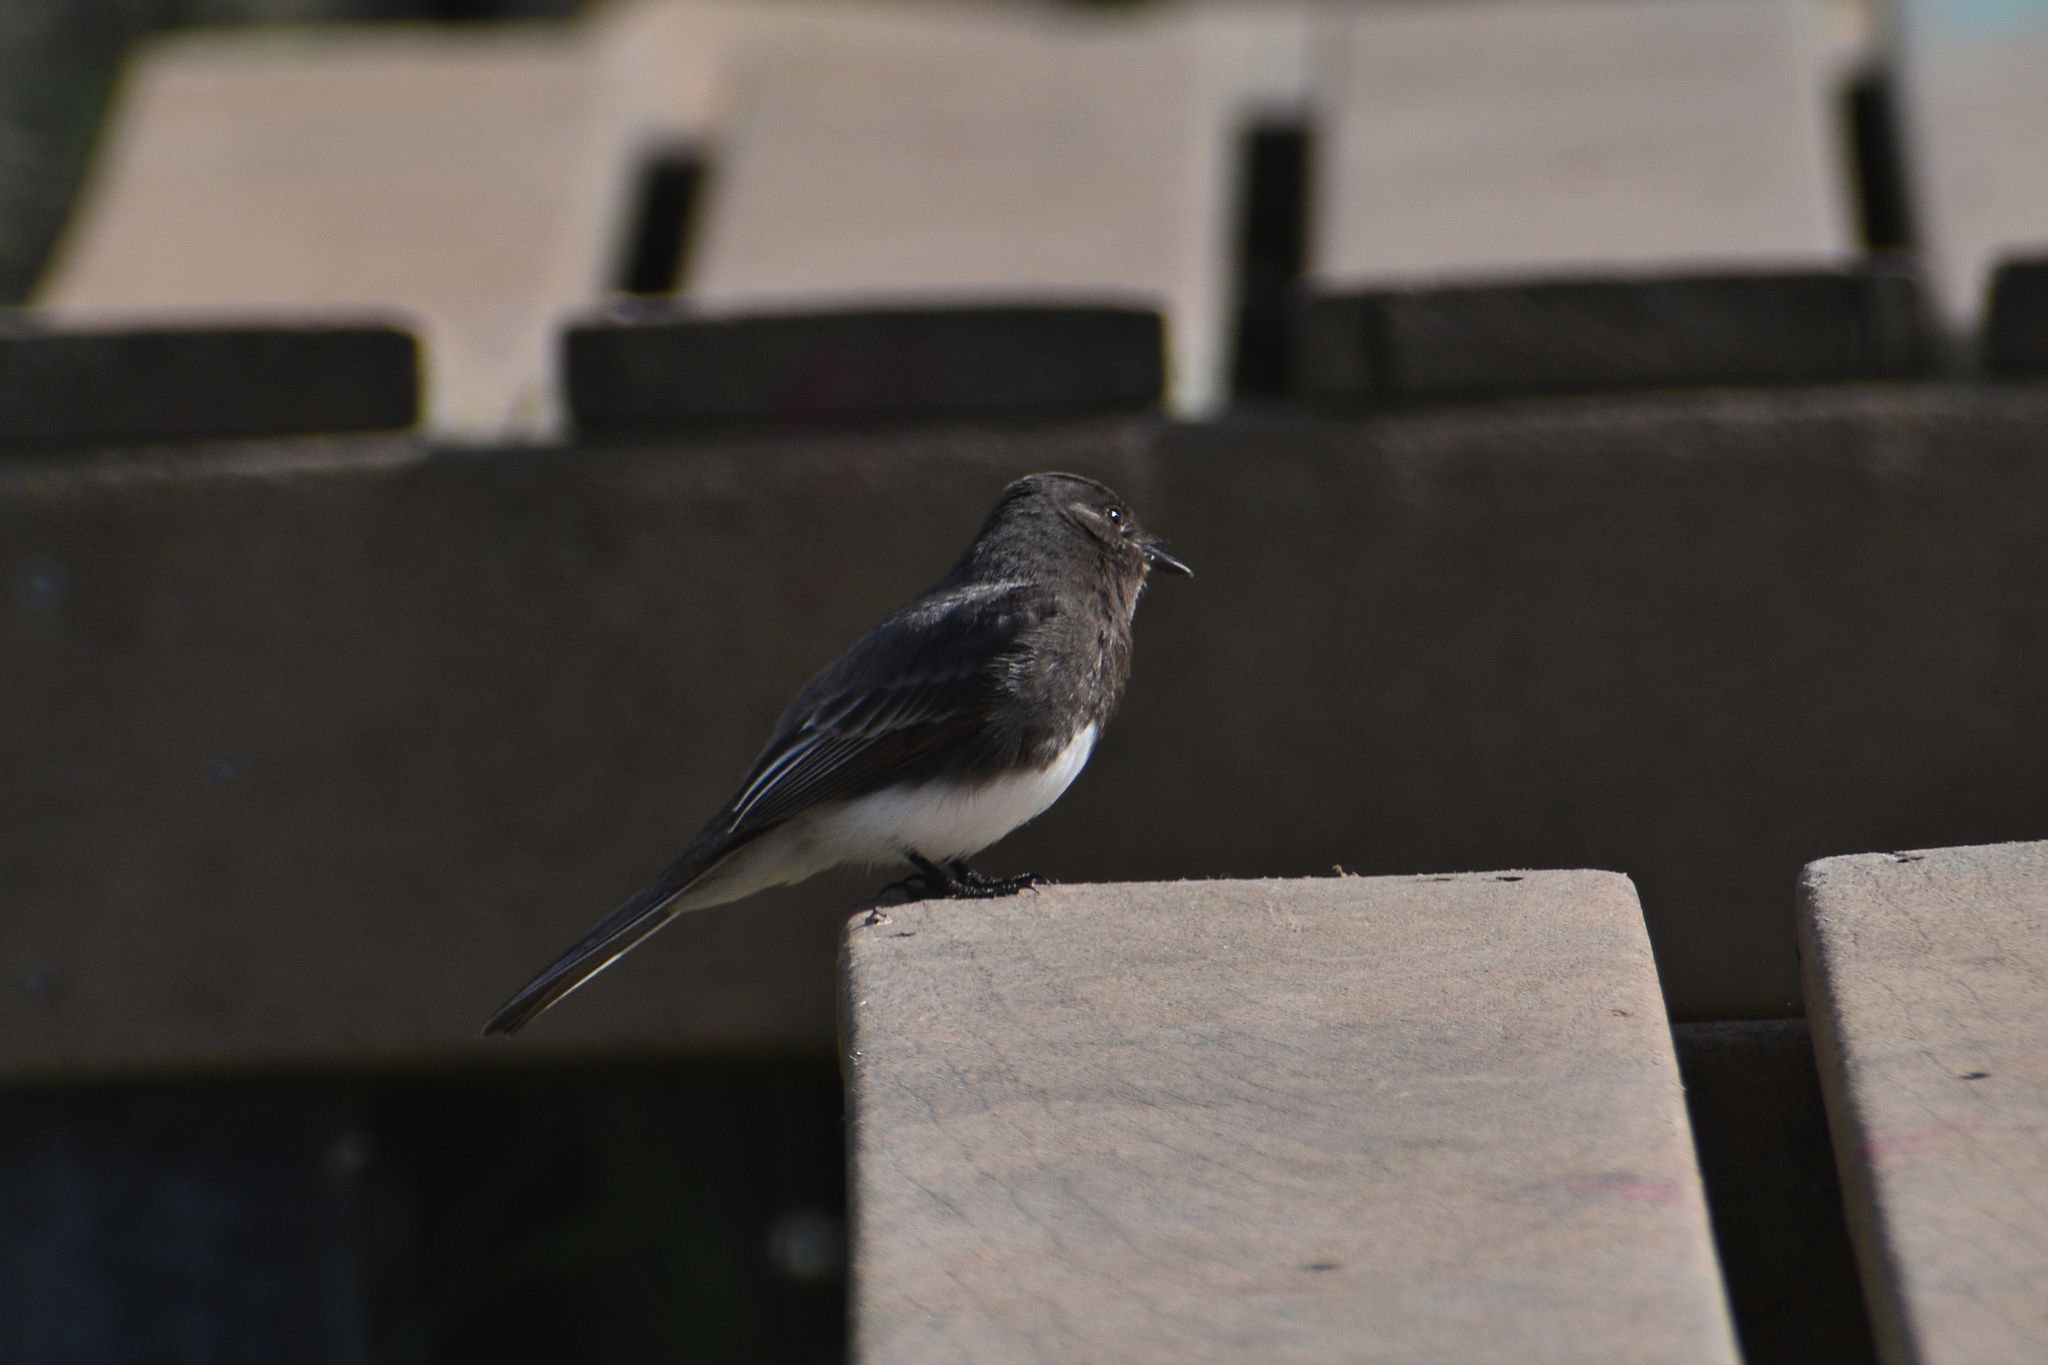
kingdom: Animalia
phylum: Chordata
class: Aves
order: Passeriformes
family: Tyrannidae
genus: Sayornis
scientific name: Sayornis nigricans
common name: Black phoebe
